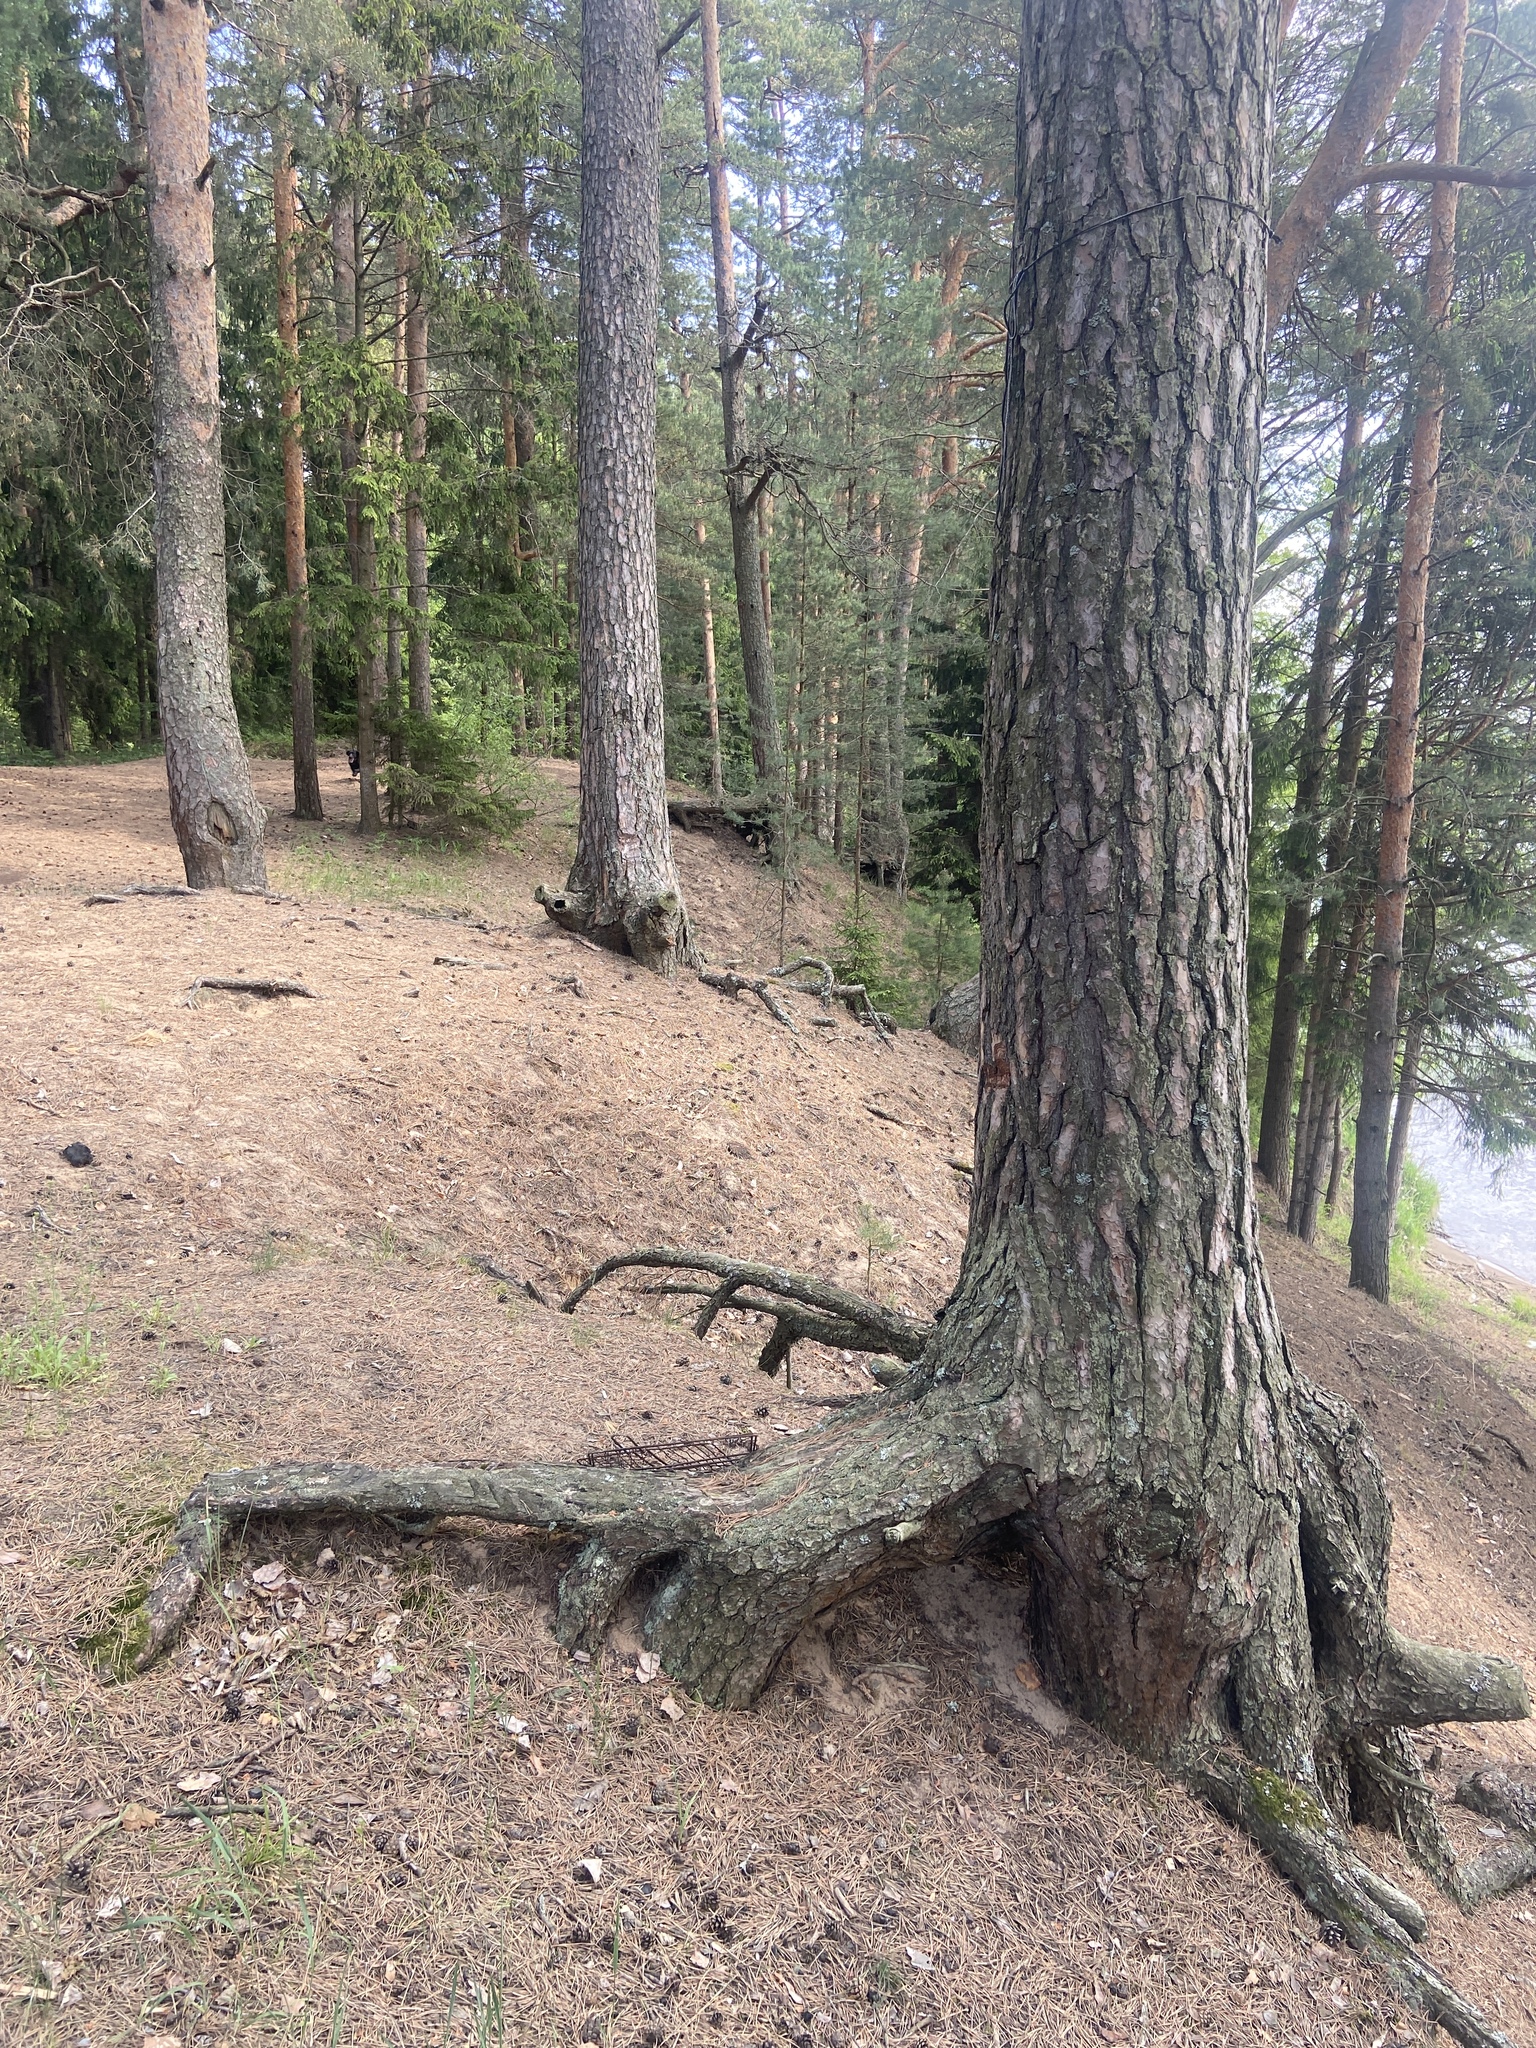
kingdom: Plantae
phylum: Tracheophyta
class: Pinopsida
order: Pinales
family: Pinaceae
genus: Pinus
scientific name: Pinus sylvestris
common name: Scots pine
